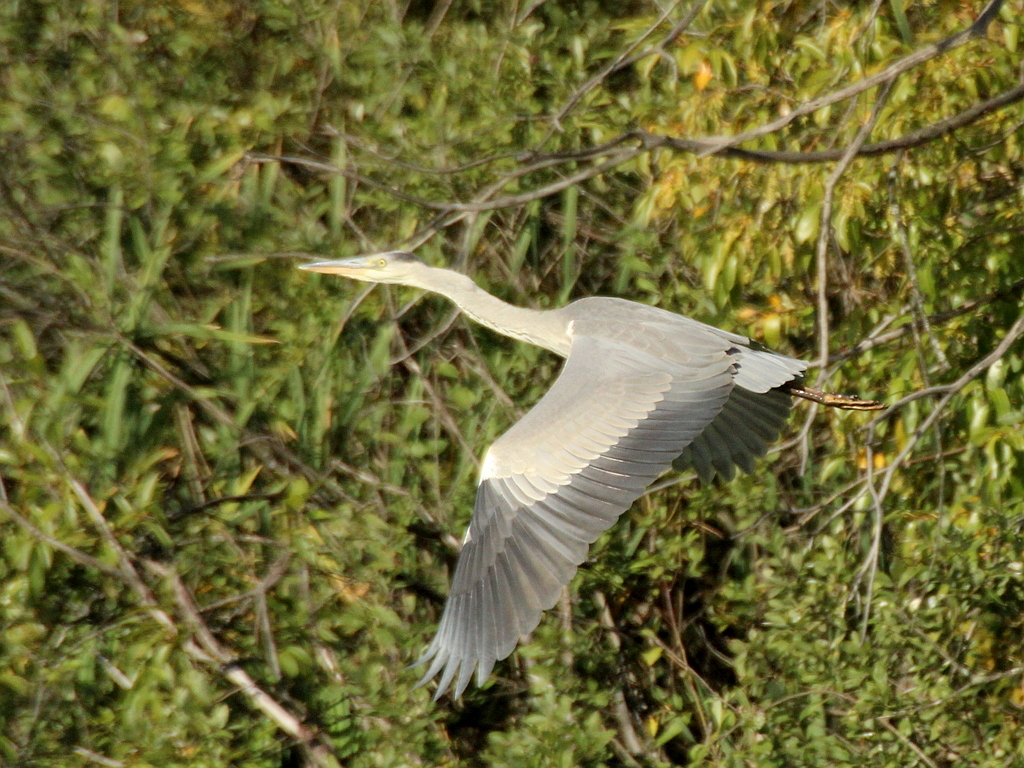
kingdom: Animalia
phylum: Chordata
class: Aves
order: Pelecaniformes
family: Ardeidae
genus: Ardea
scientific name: Ardea cinerea
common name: Grey heron
